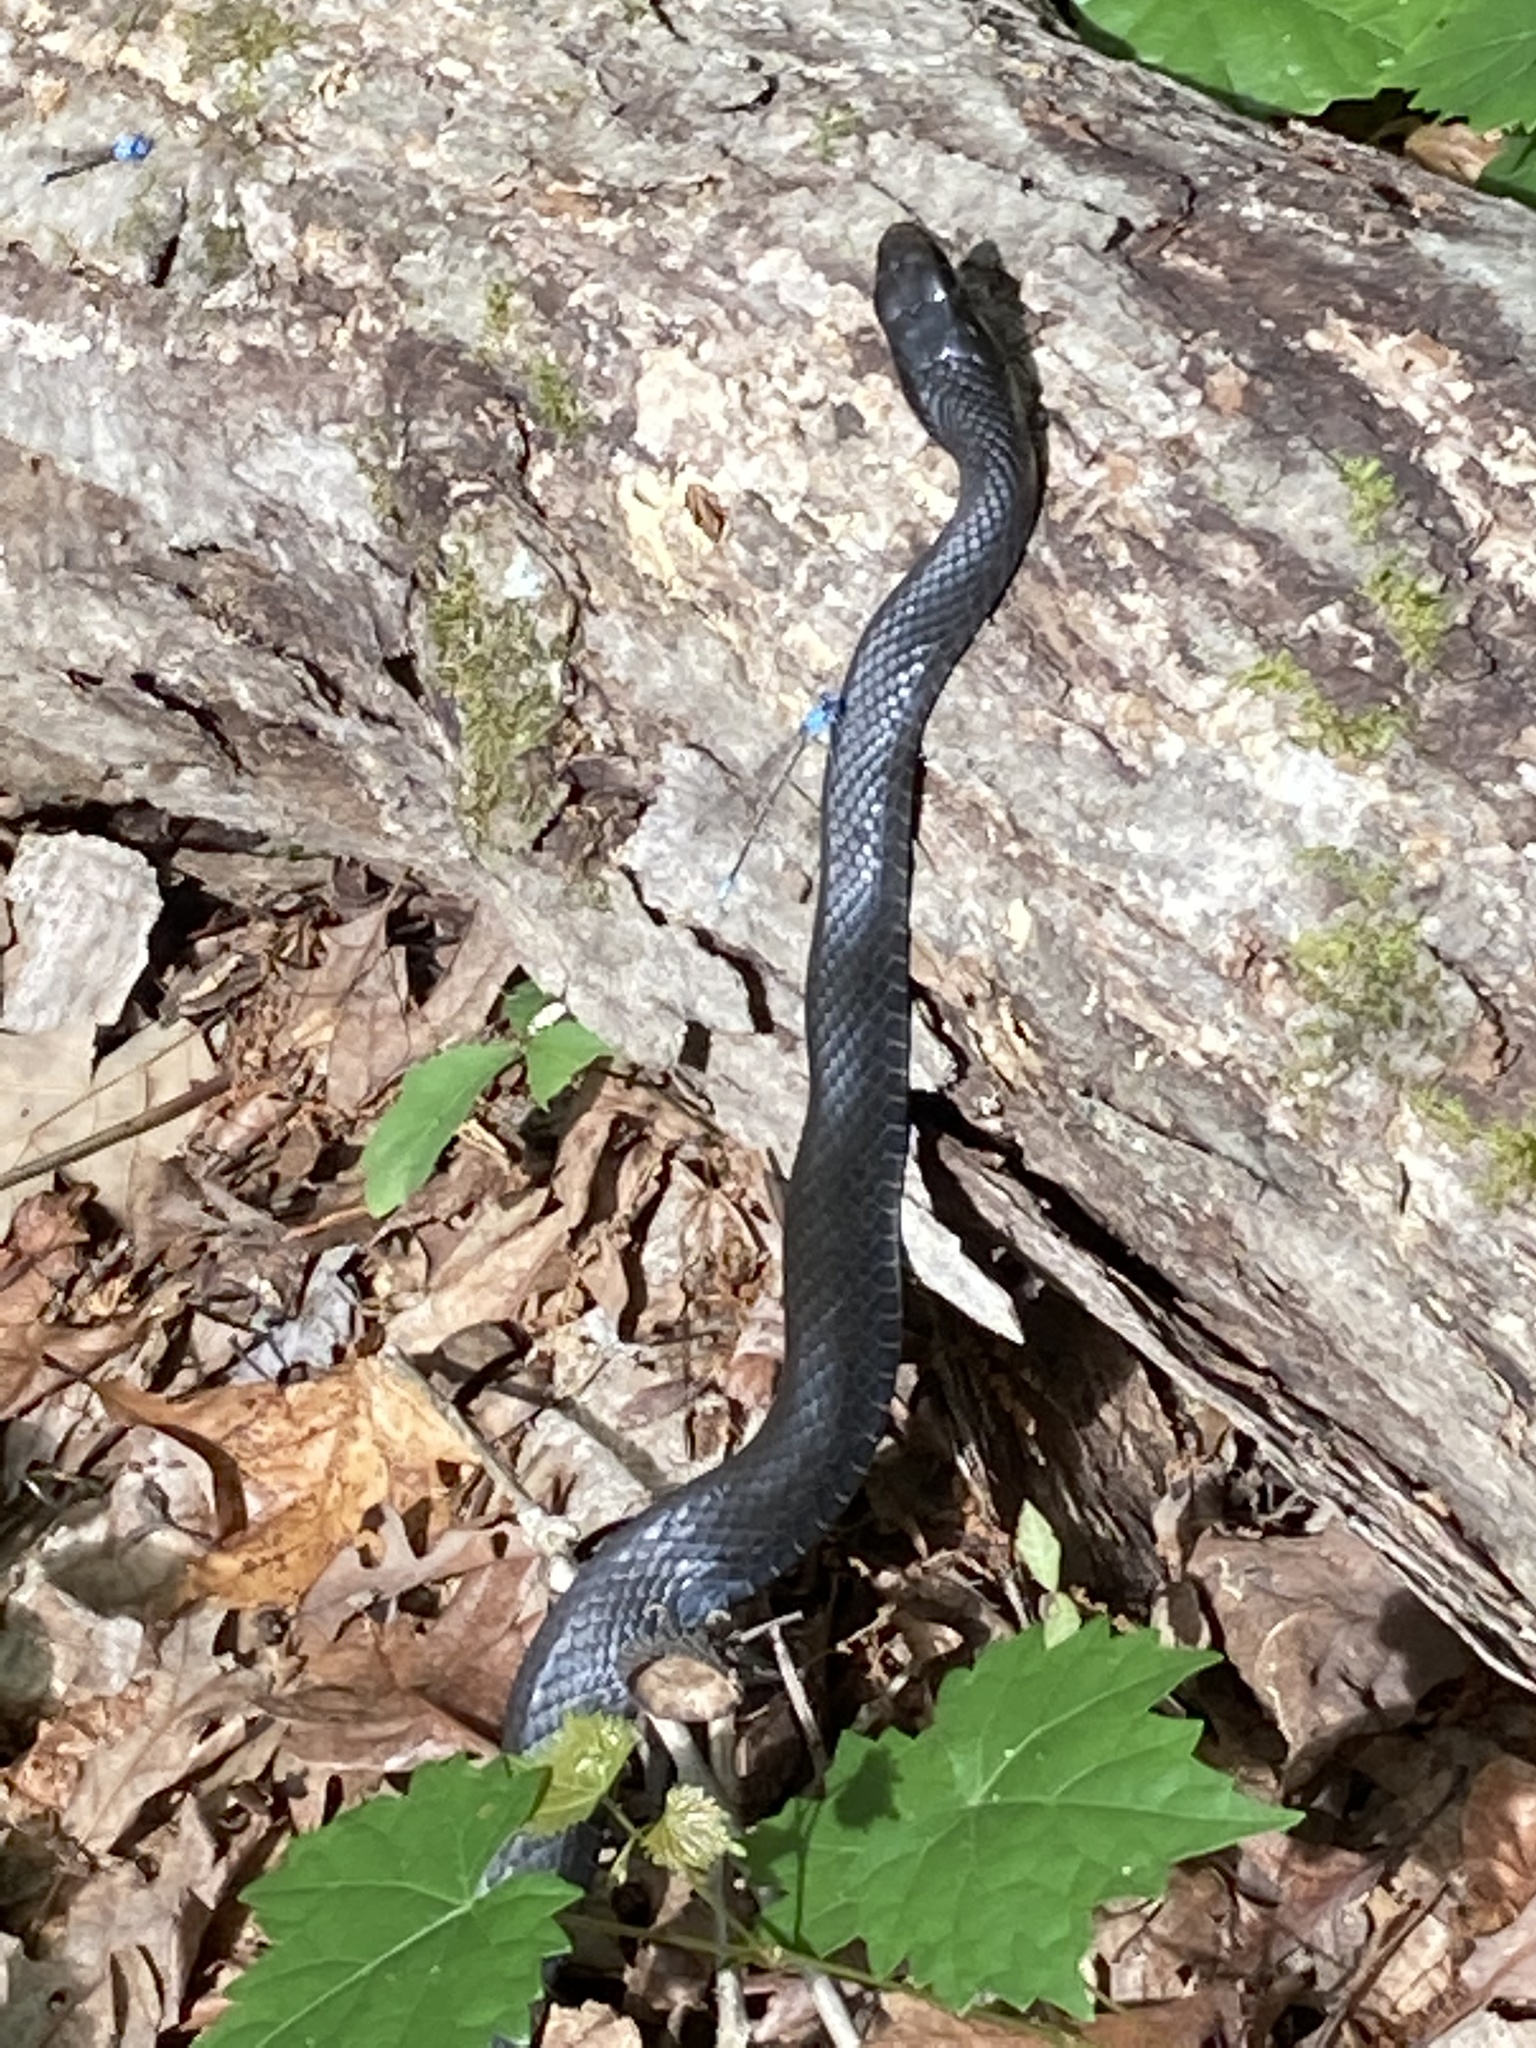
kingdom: Animalia
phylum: Chordata
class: Squamata
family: Colubridae
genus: Coluber
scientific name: Coluber constrictor
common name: Eastern racer
